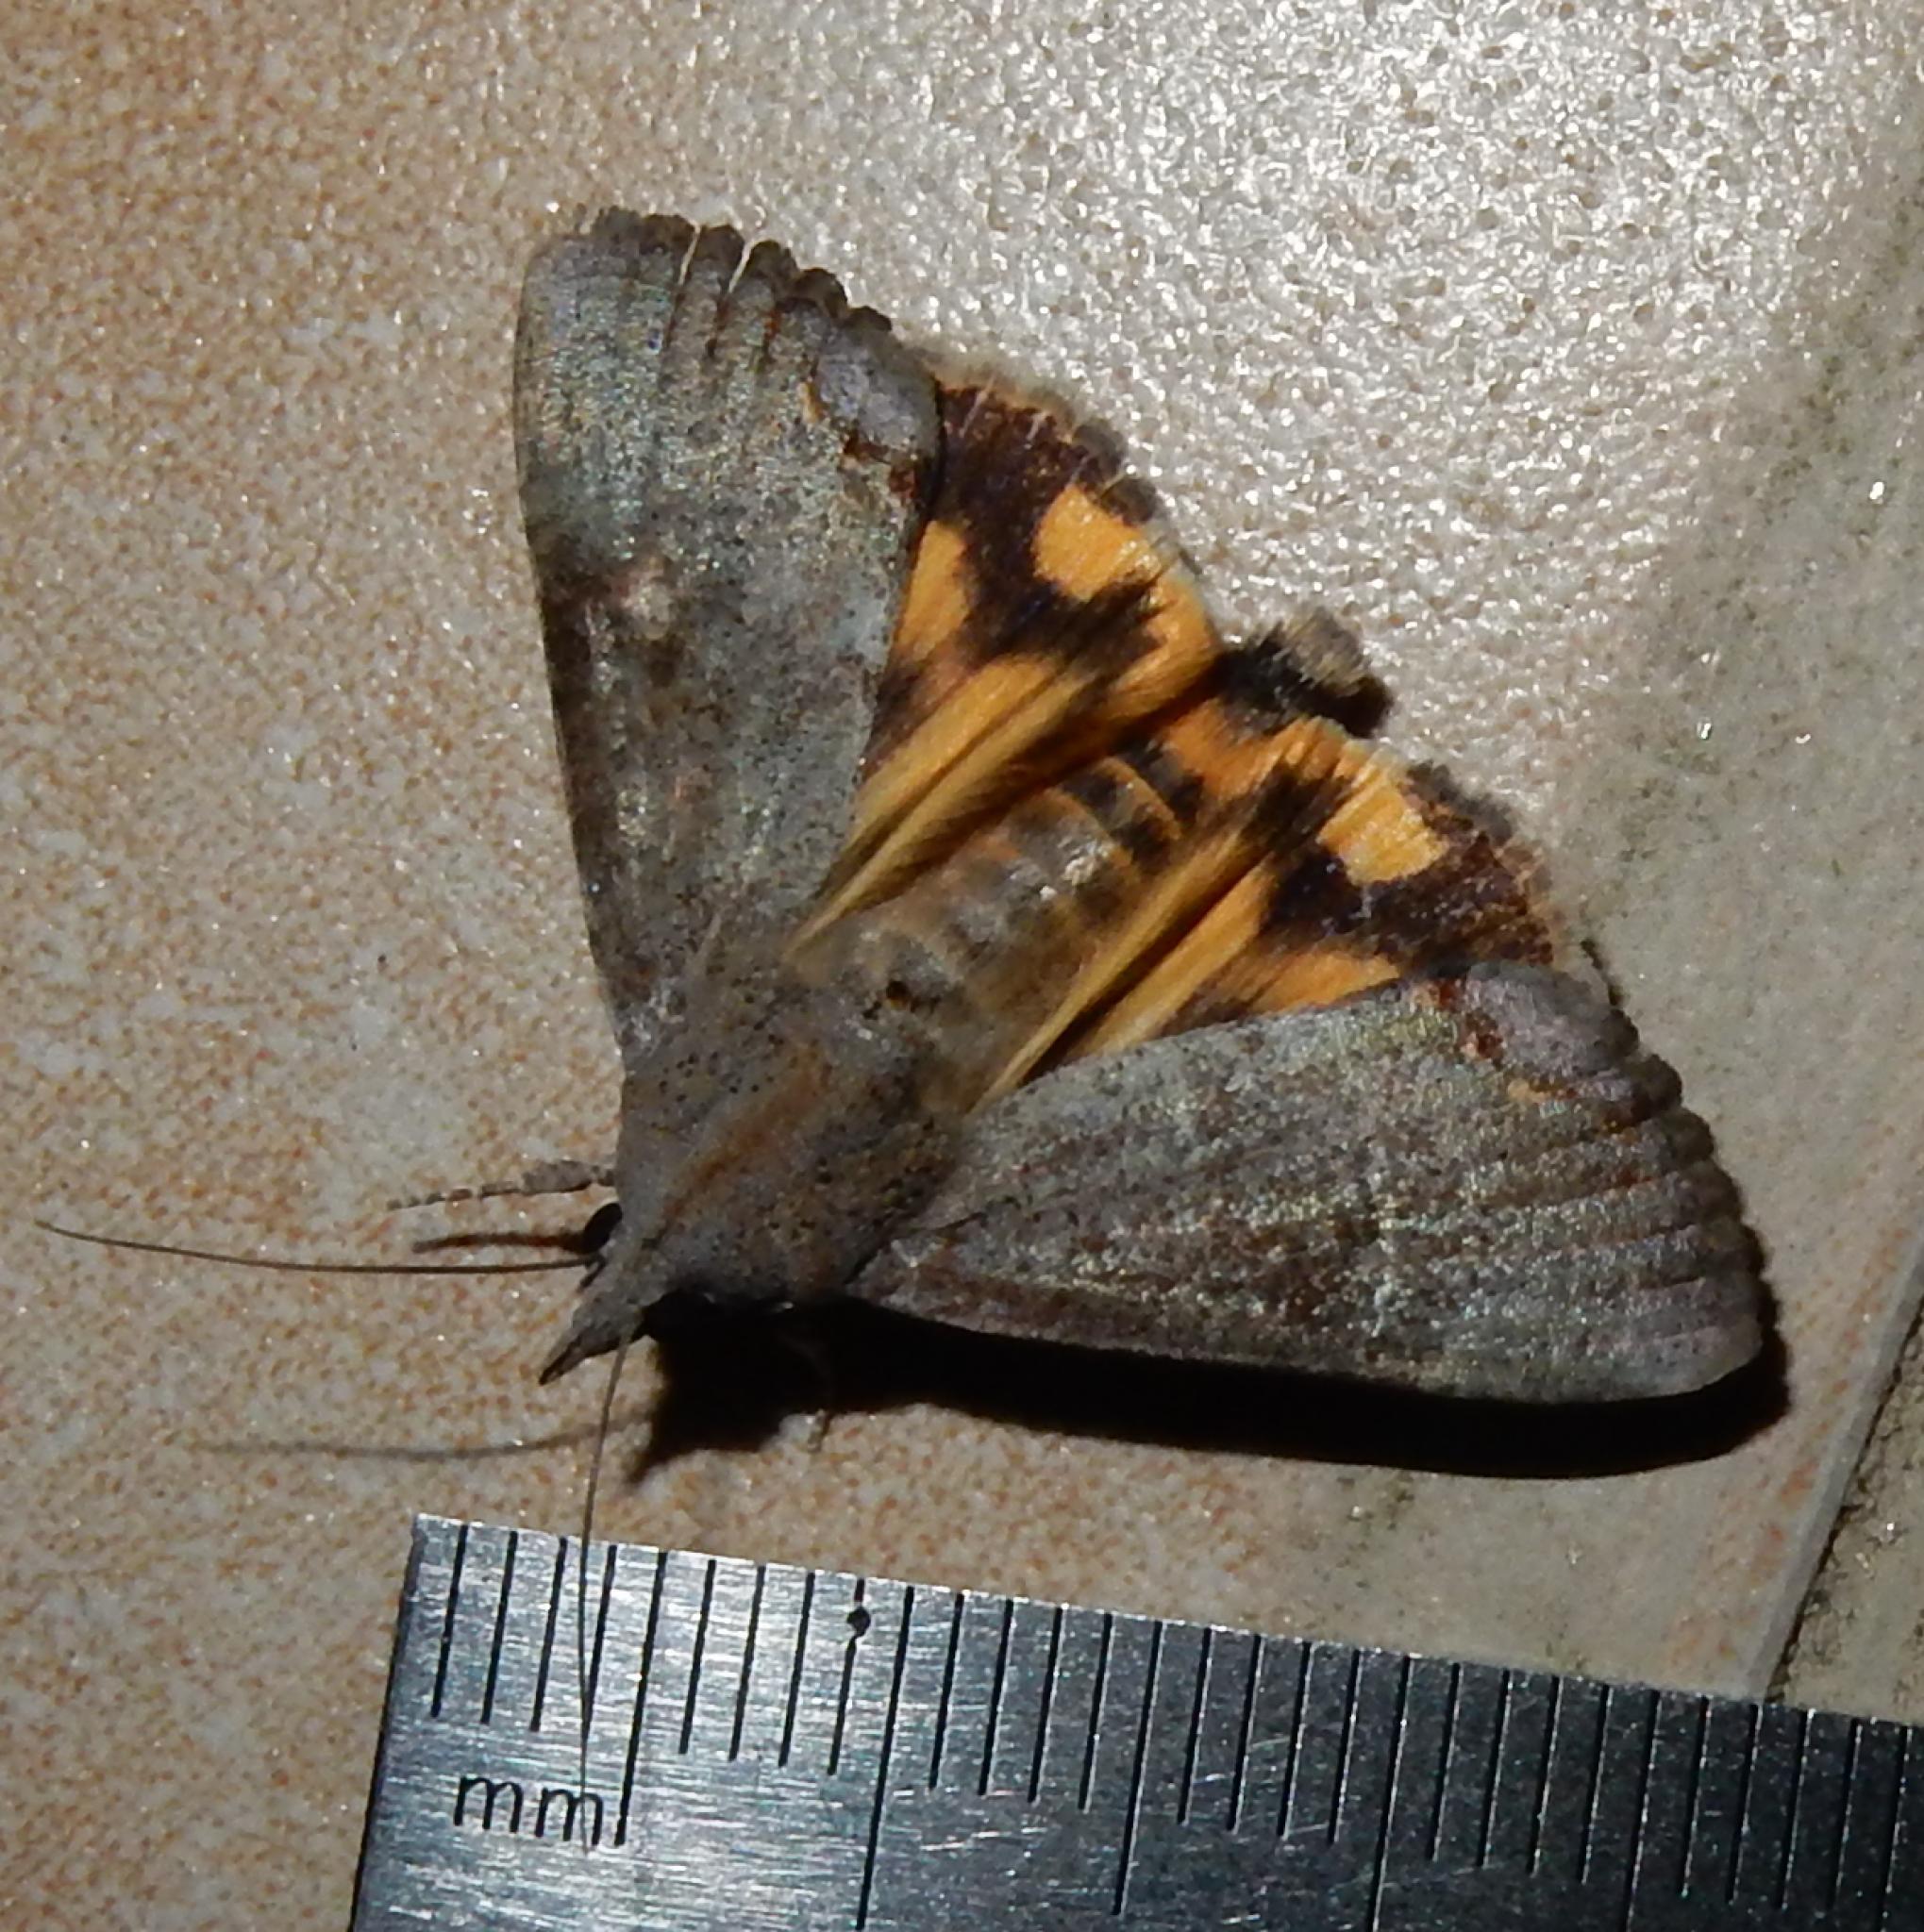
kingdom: Animalia
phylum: Arthropoda
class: Insecta
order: Lepidoptera
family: Erebidae
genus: Hypocala
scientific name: Hypocala deflorata
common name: Moth
